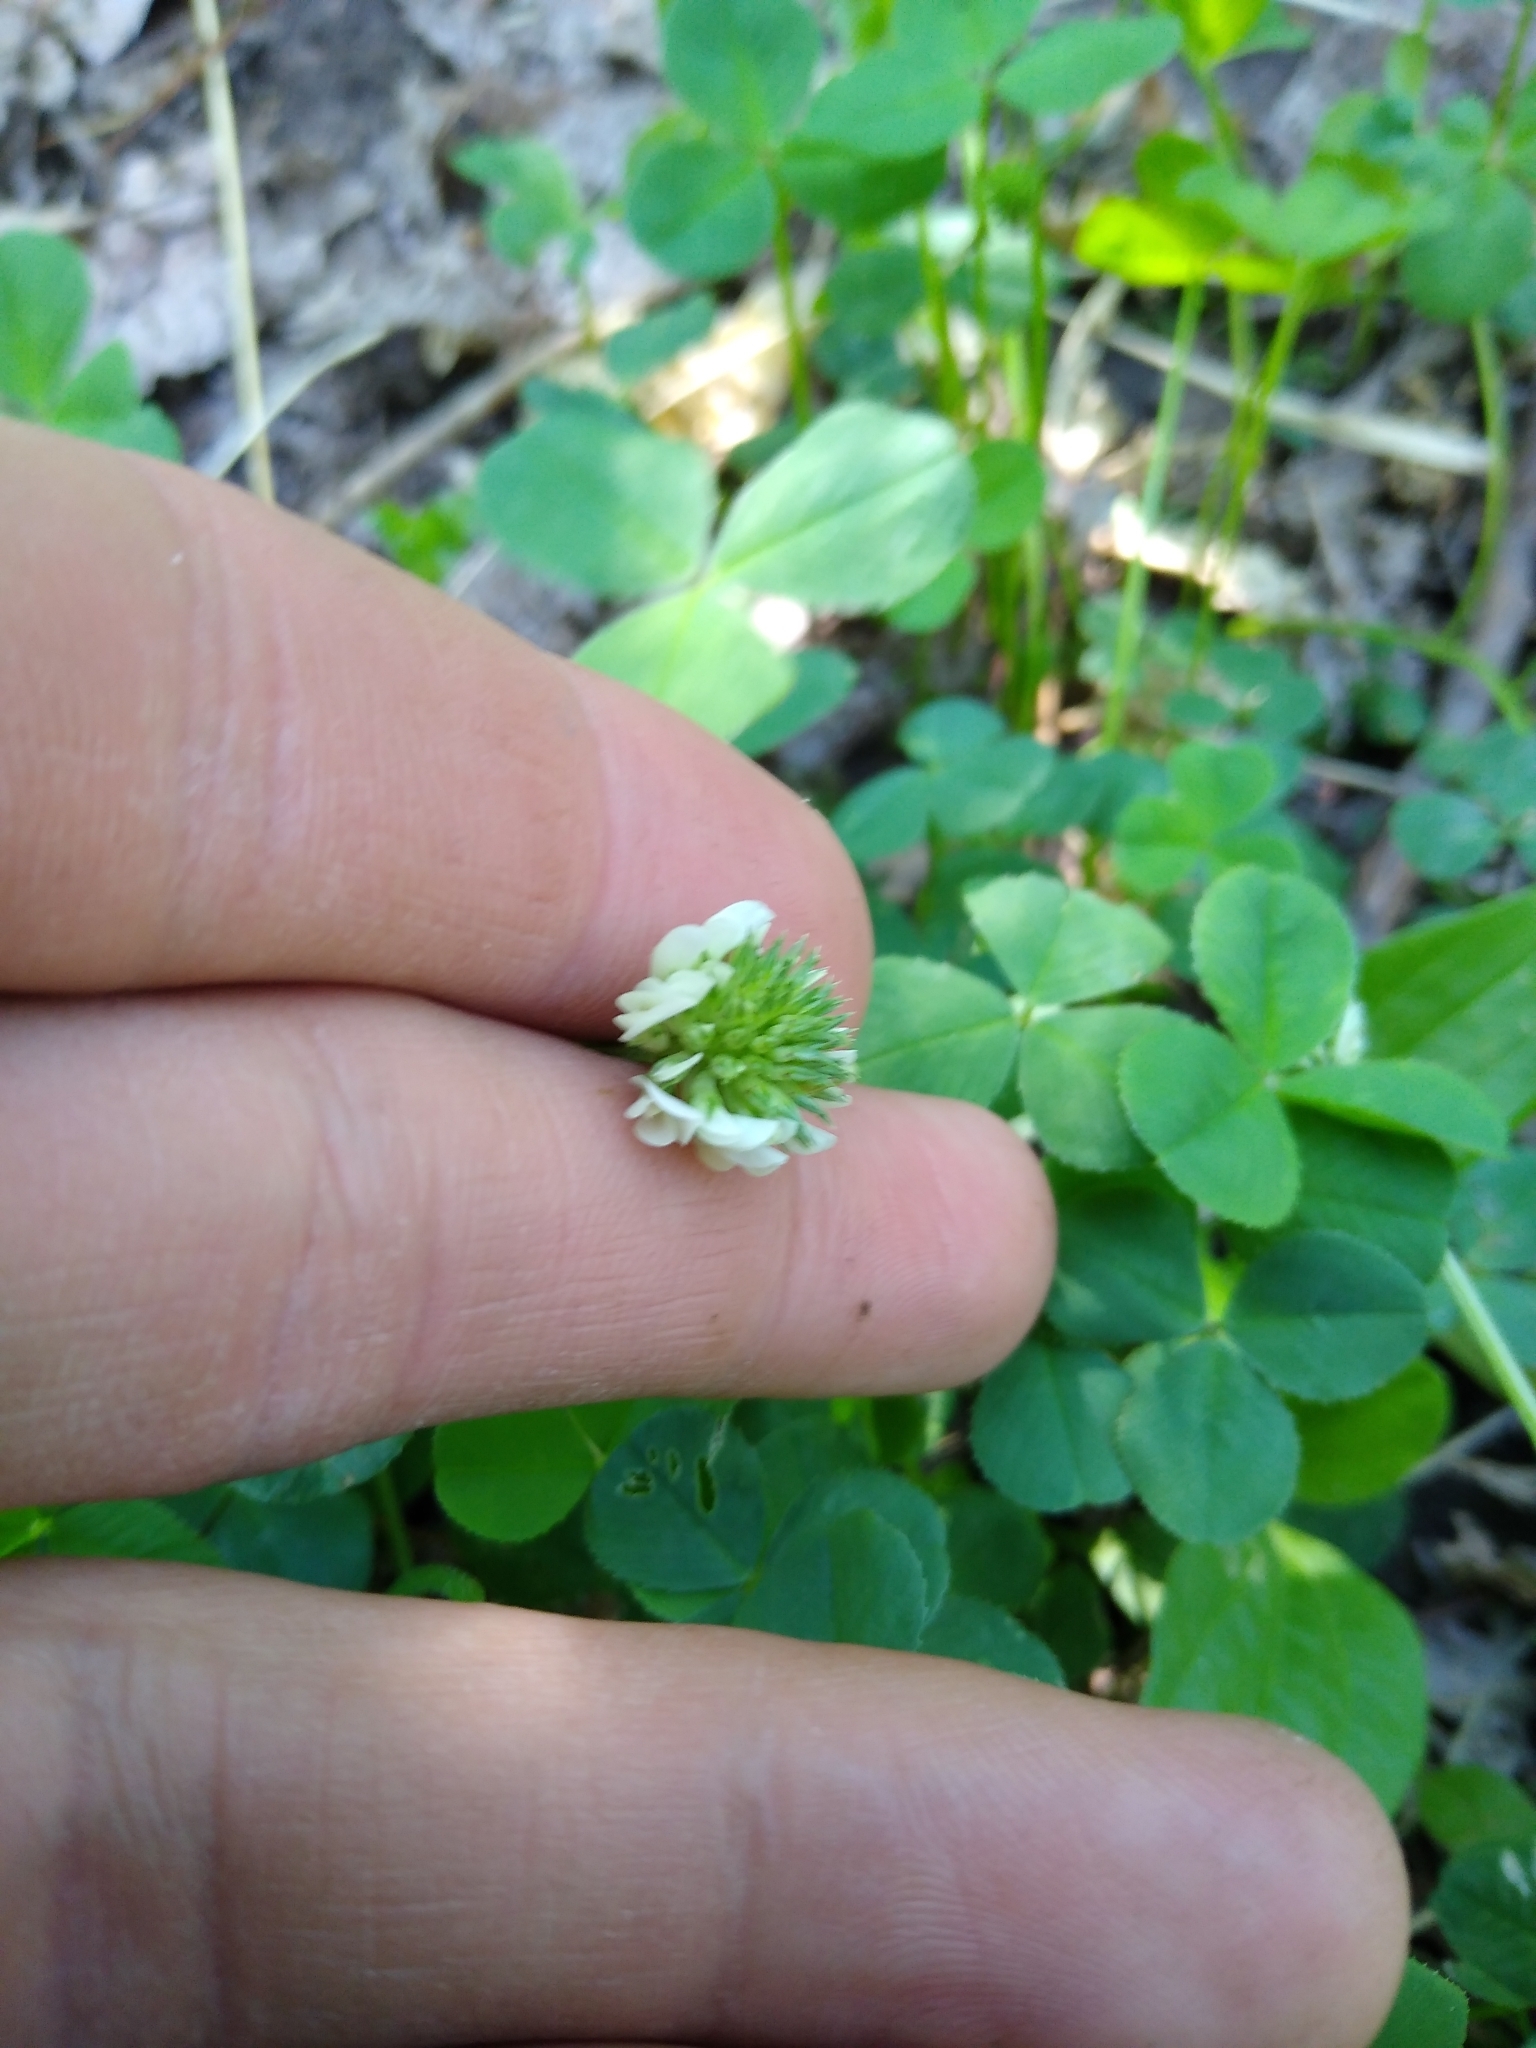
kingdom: Plantae
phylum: Tracheophyta
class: Magnoliopsida
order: Fabales
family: Fabaceae
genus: Trifolium
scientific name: Trifolium repens
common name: White clover
